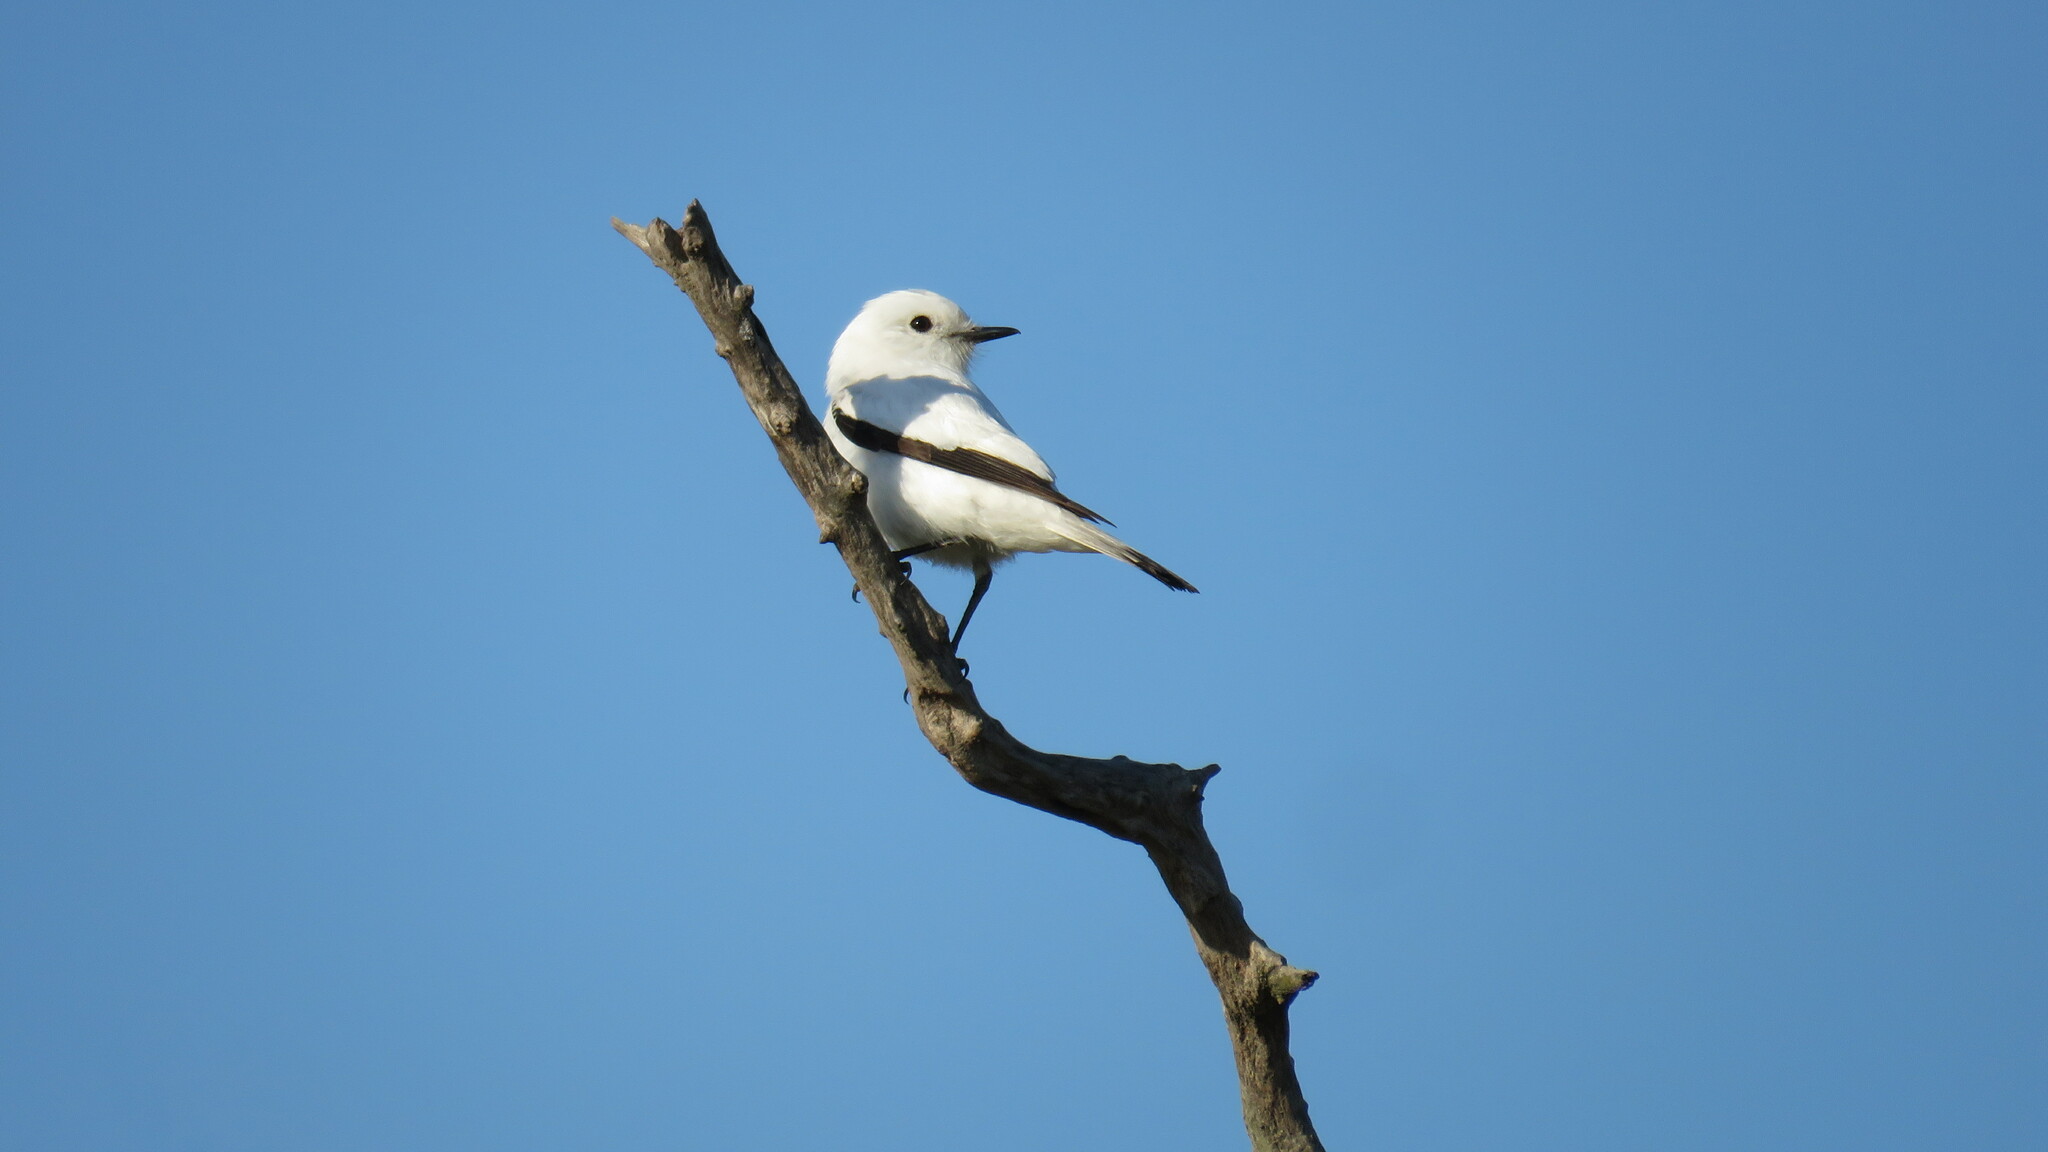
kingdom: Animalia
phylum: Chordata
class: Aves
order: Passeriformes
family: Tyrannidae
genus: Xolmis
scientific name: Xolmis irupero
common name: White monjita
